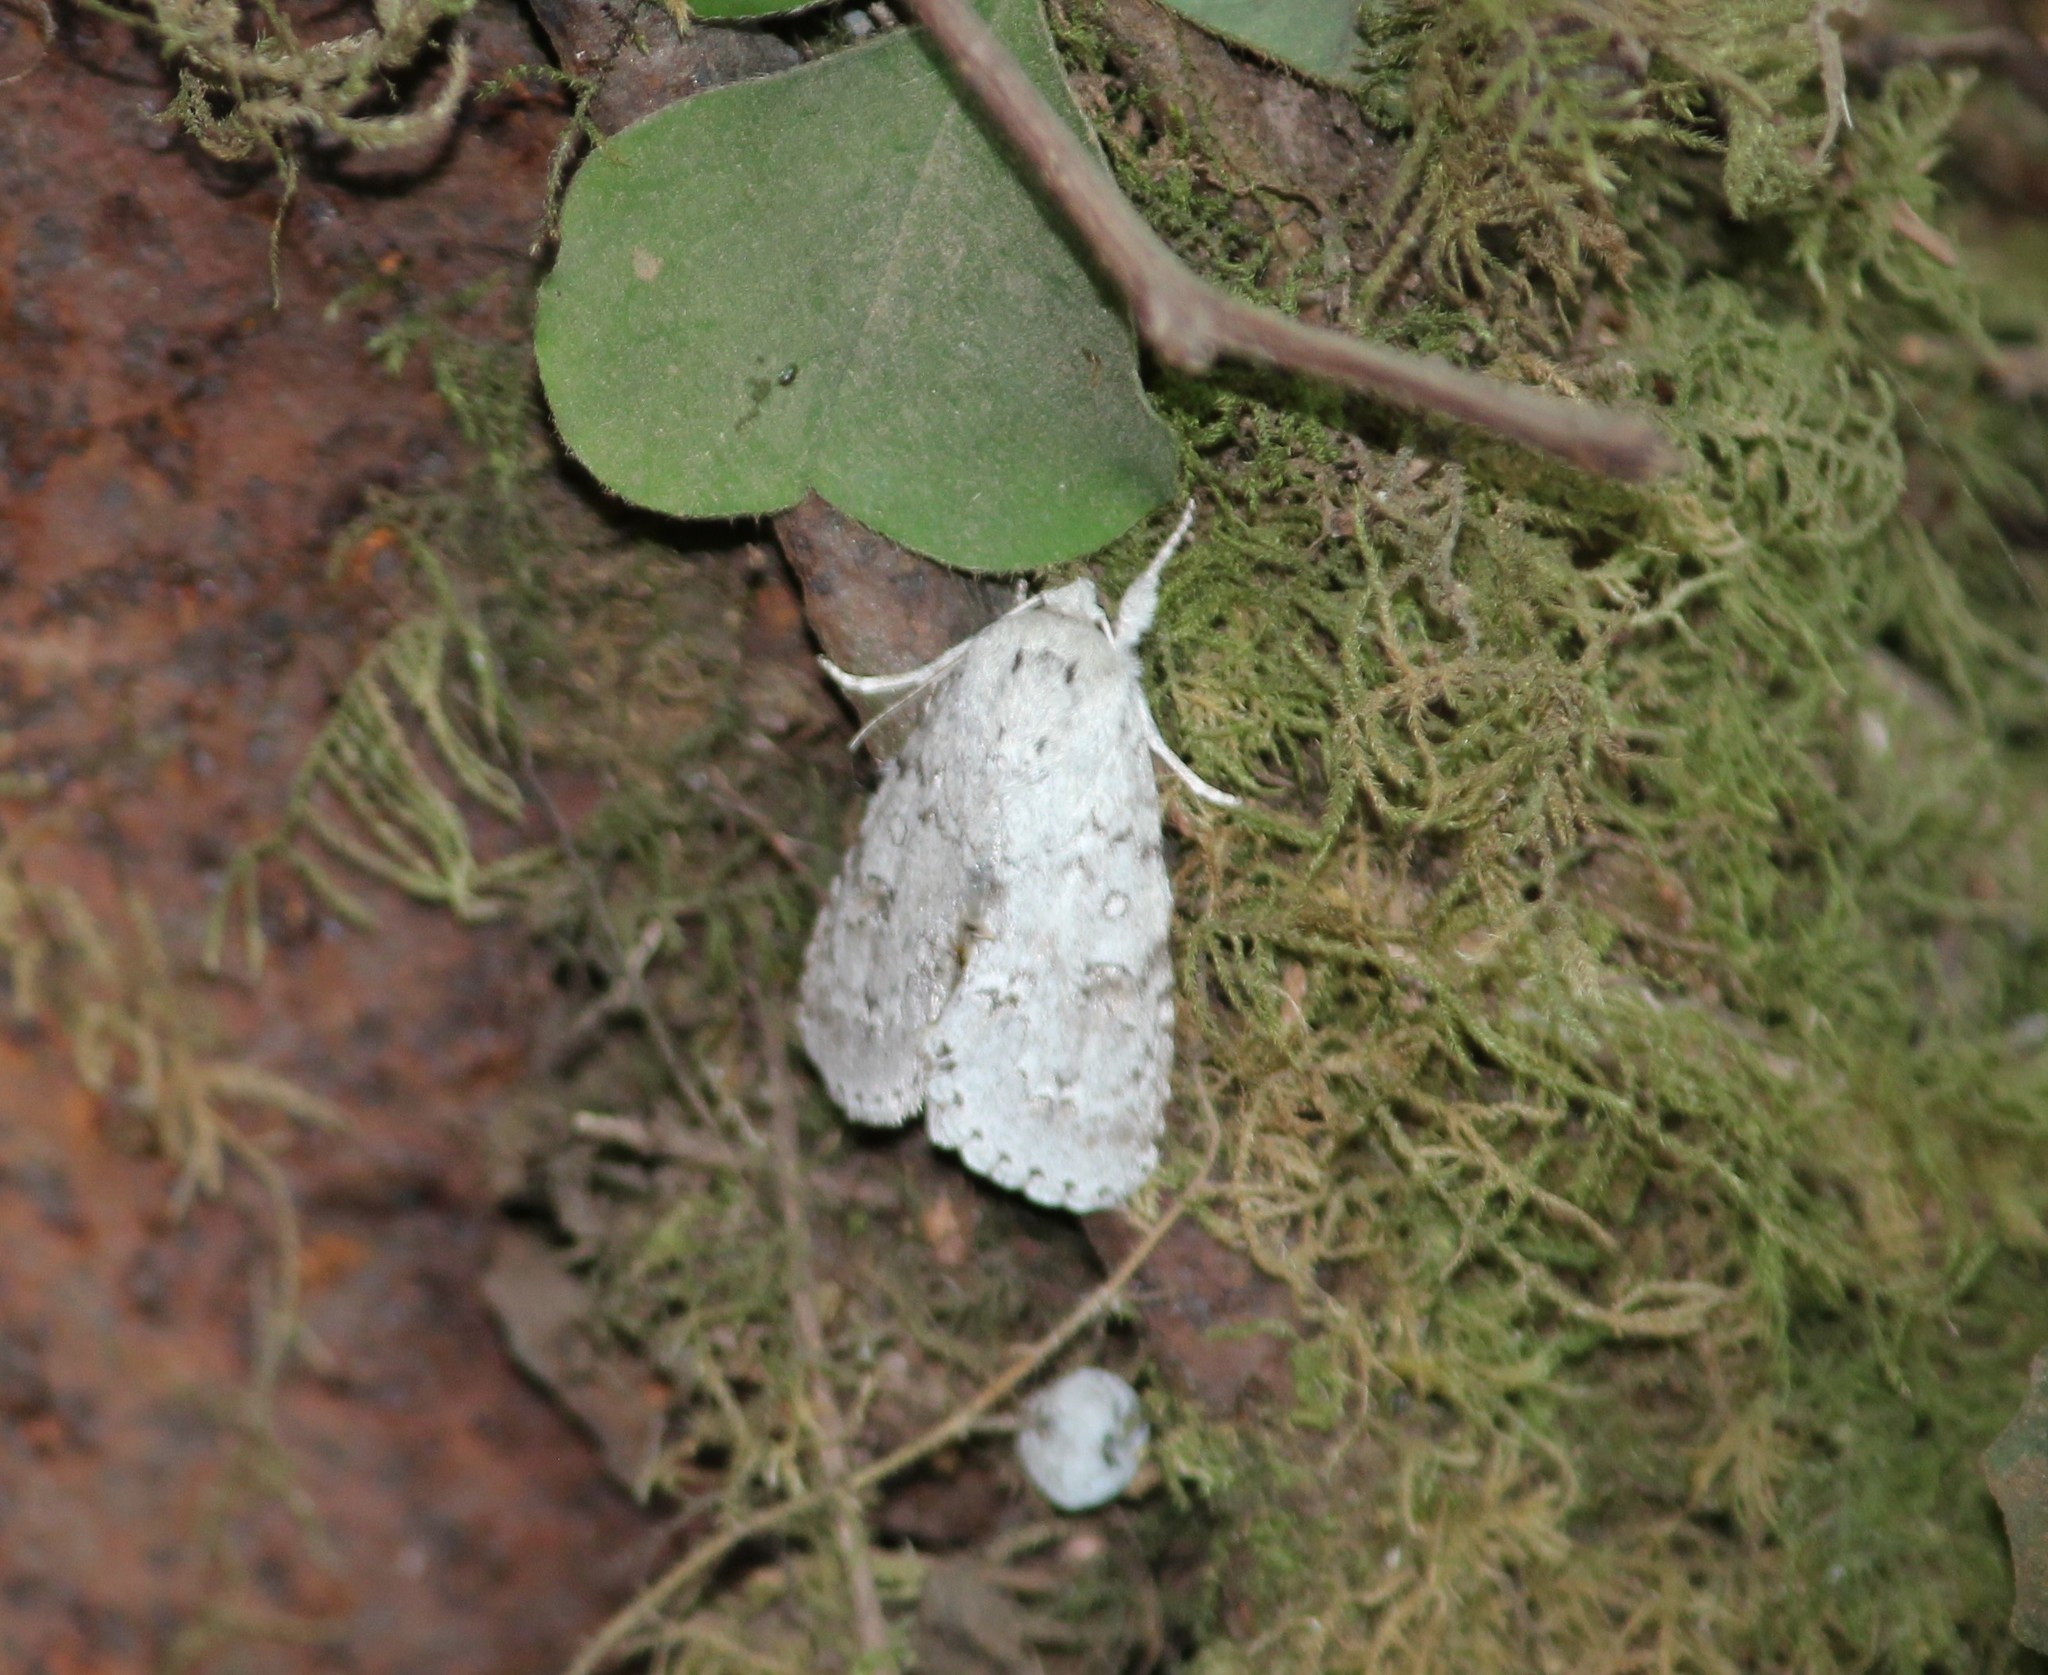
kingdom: Animalia
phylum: Arthropoda
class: Insecta
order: Lepidoptera
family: Noctuidae
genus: Acronicta
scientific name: Acronicta insita
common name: Large gray dagger
